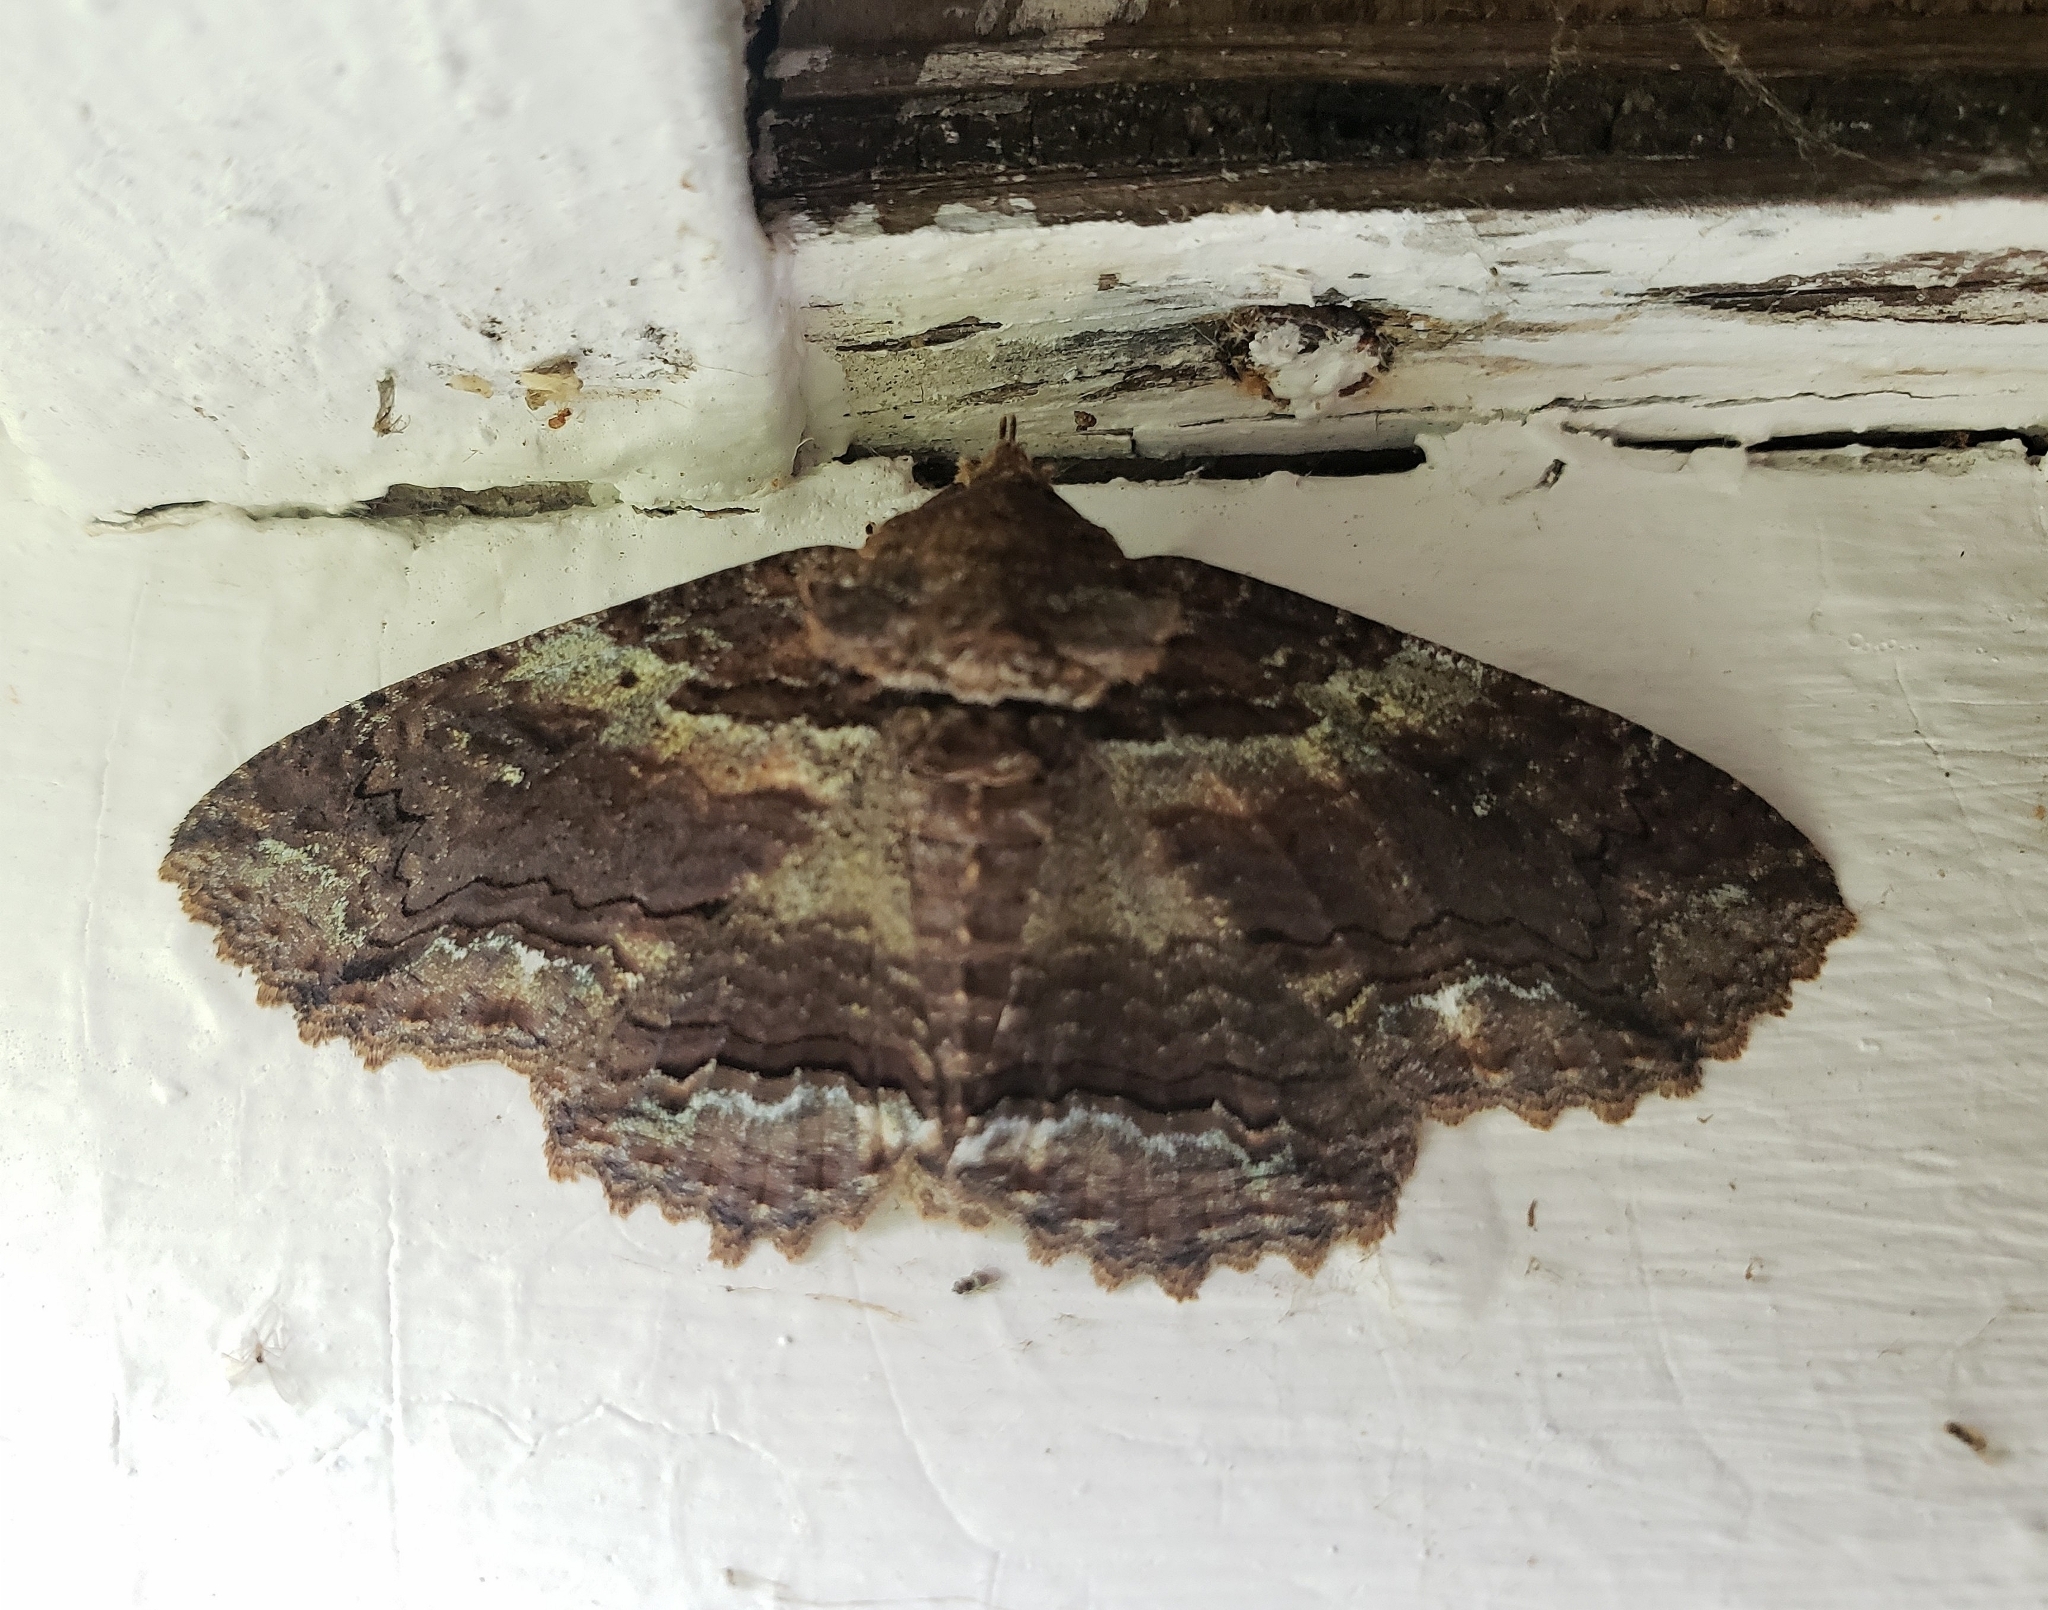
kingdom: Animalia
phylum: Arthropoda
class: Insecta
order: Lepidoptera
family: Erebidae
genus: Zale
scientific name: Zale lunata
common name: Lunate zale moth
